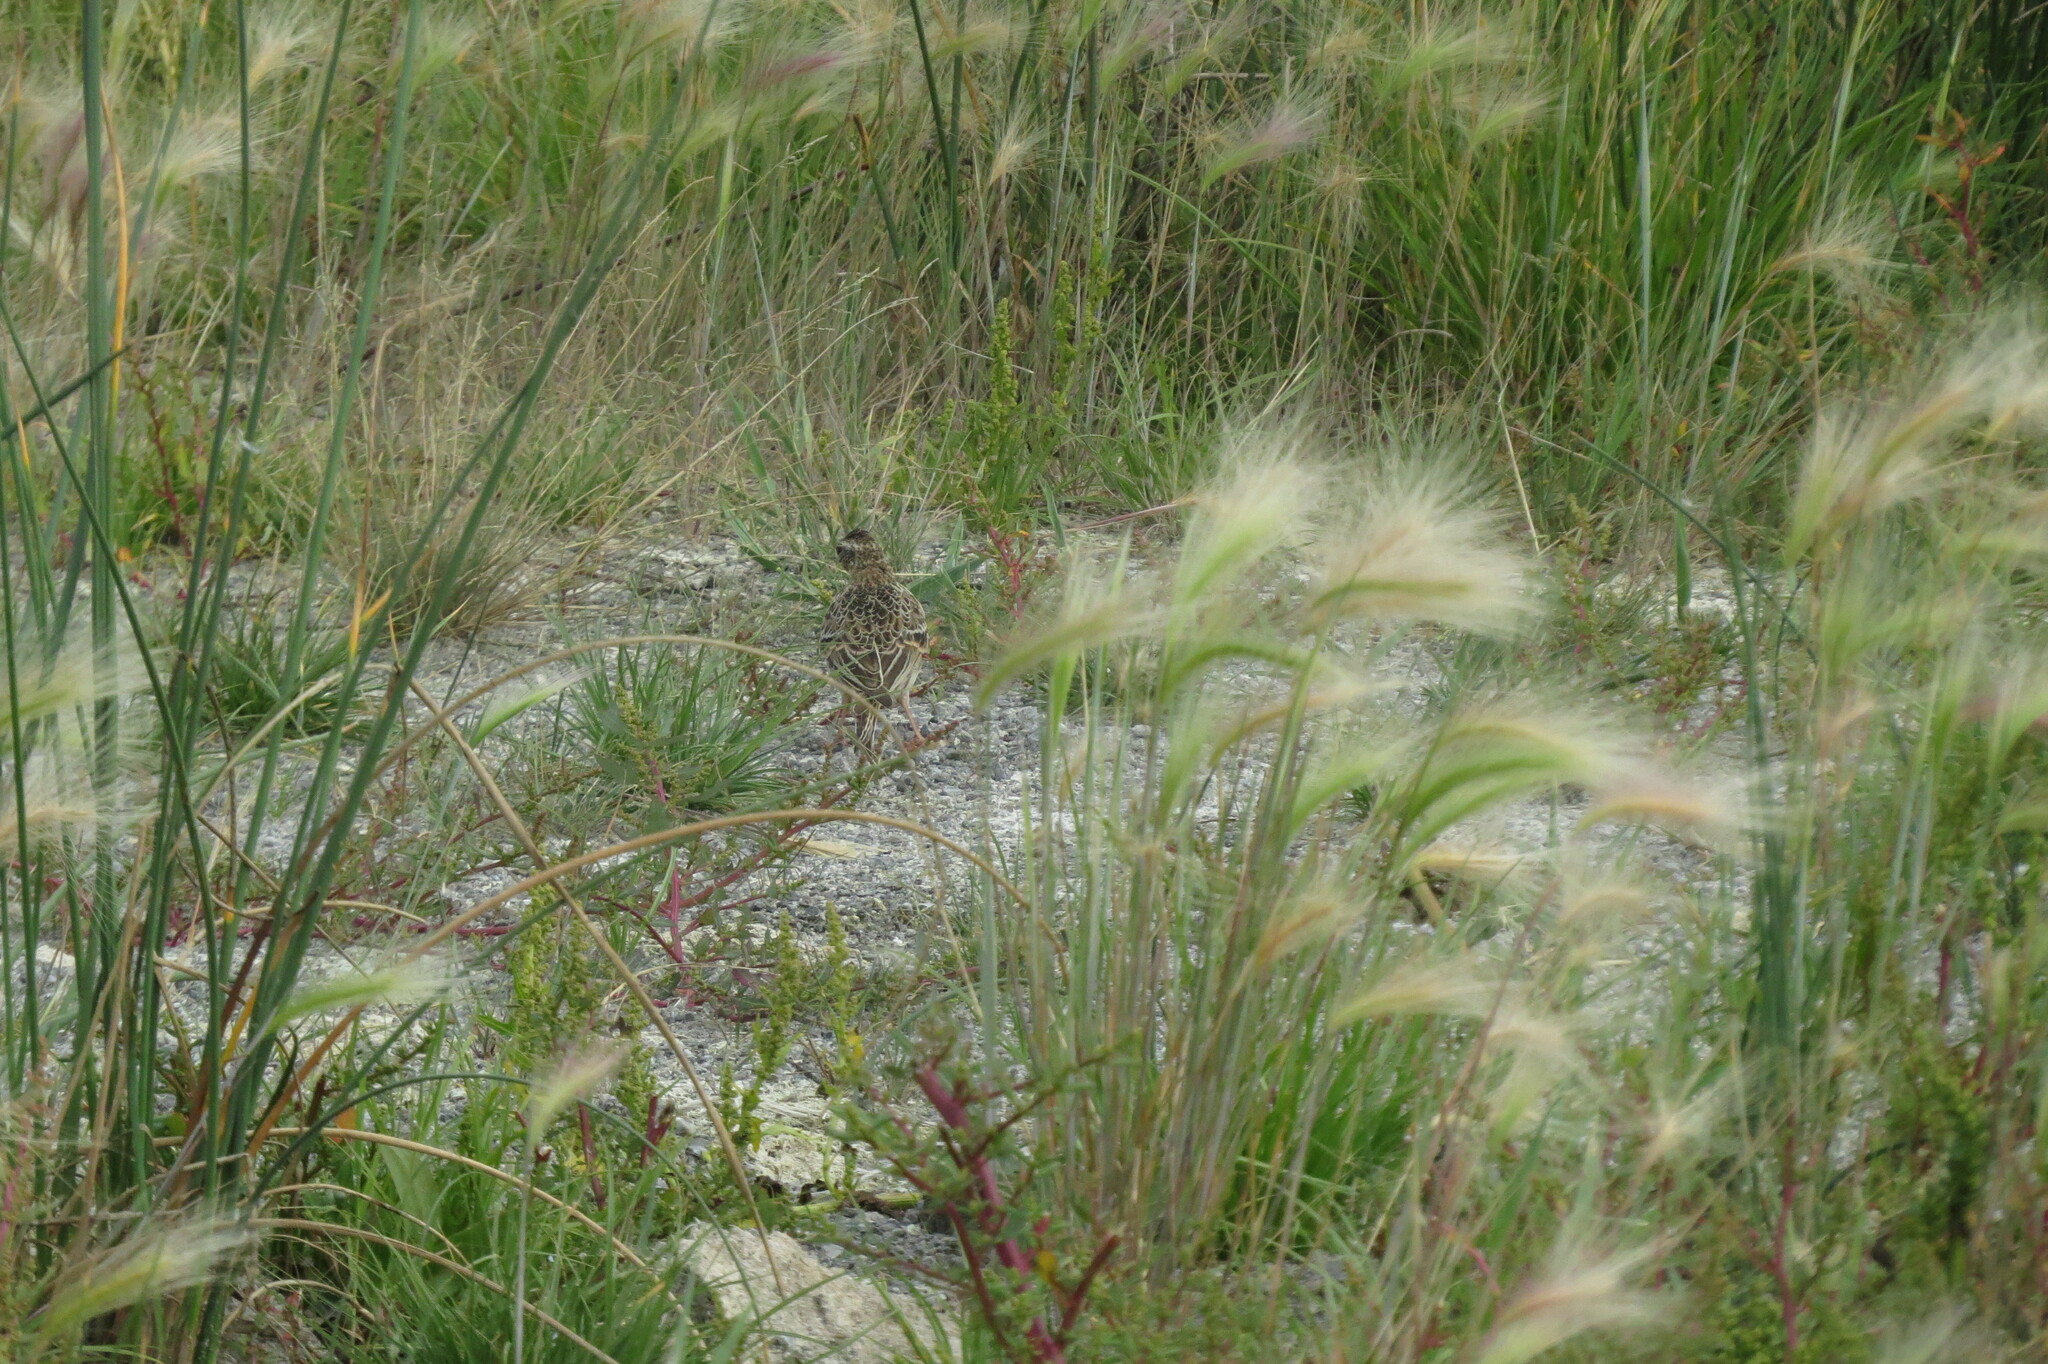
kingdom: Animalia
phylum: Chordata
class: Aves
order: Passeriformes
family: Alaudidae
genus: Alauda
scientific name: Alauda arvensis
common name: Eurasian skylark
